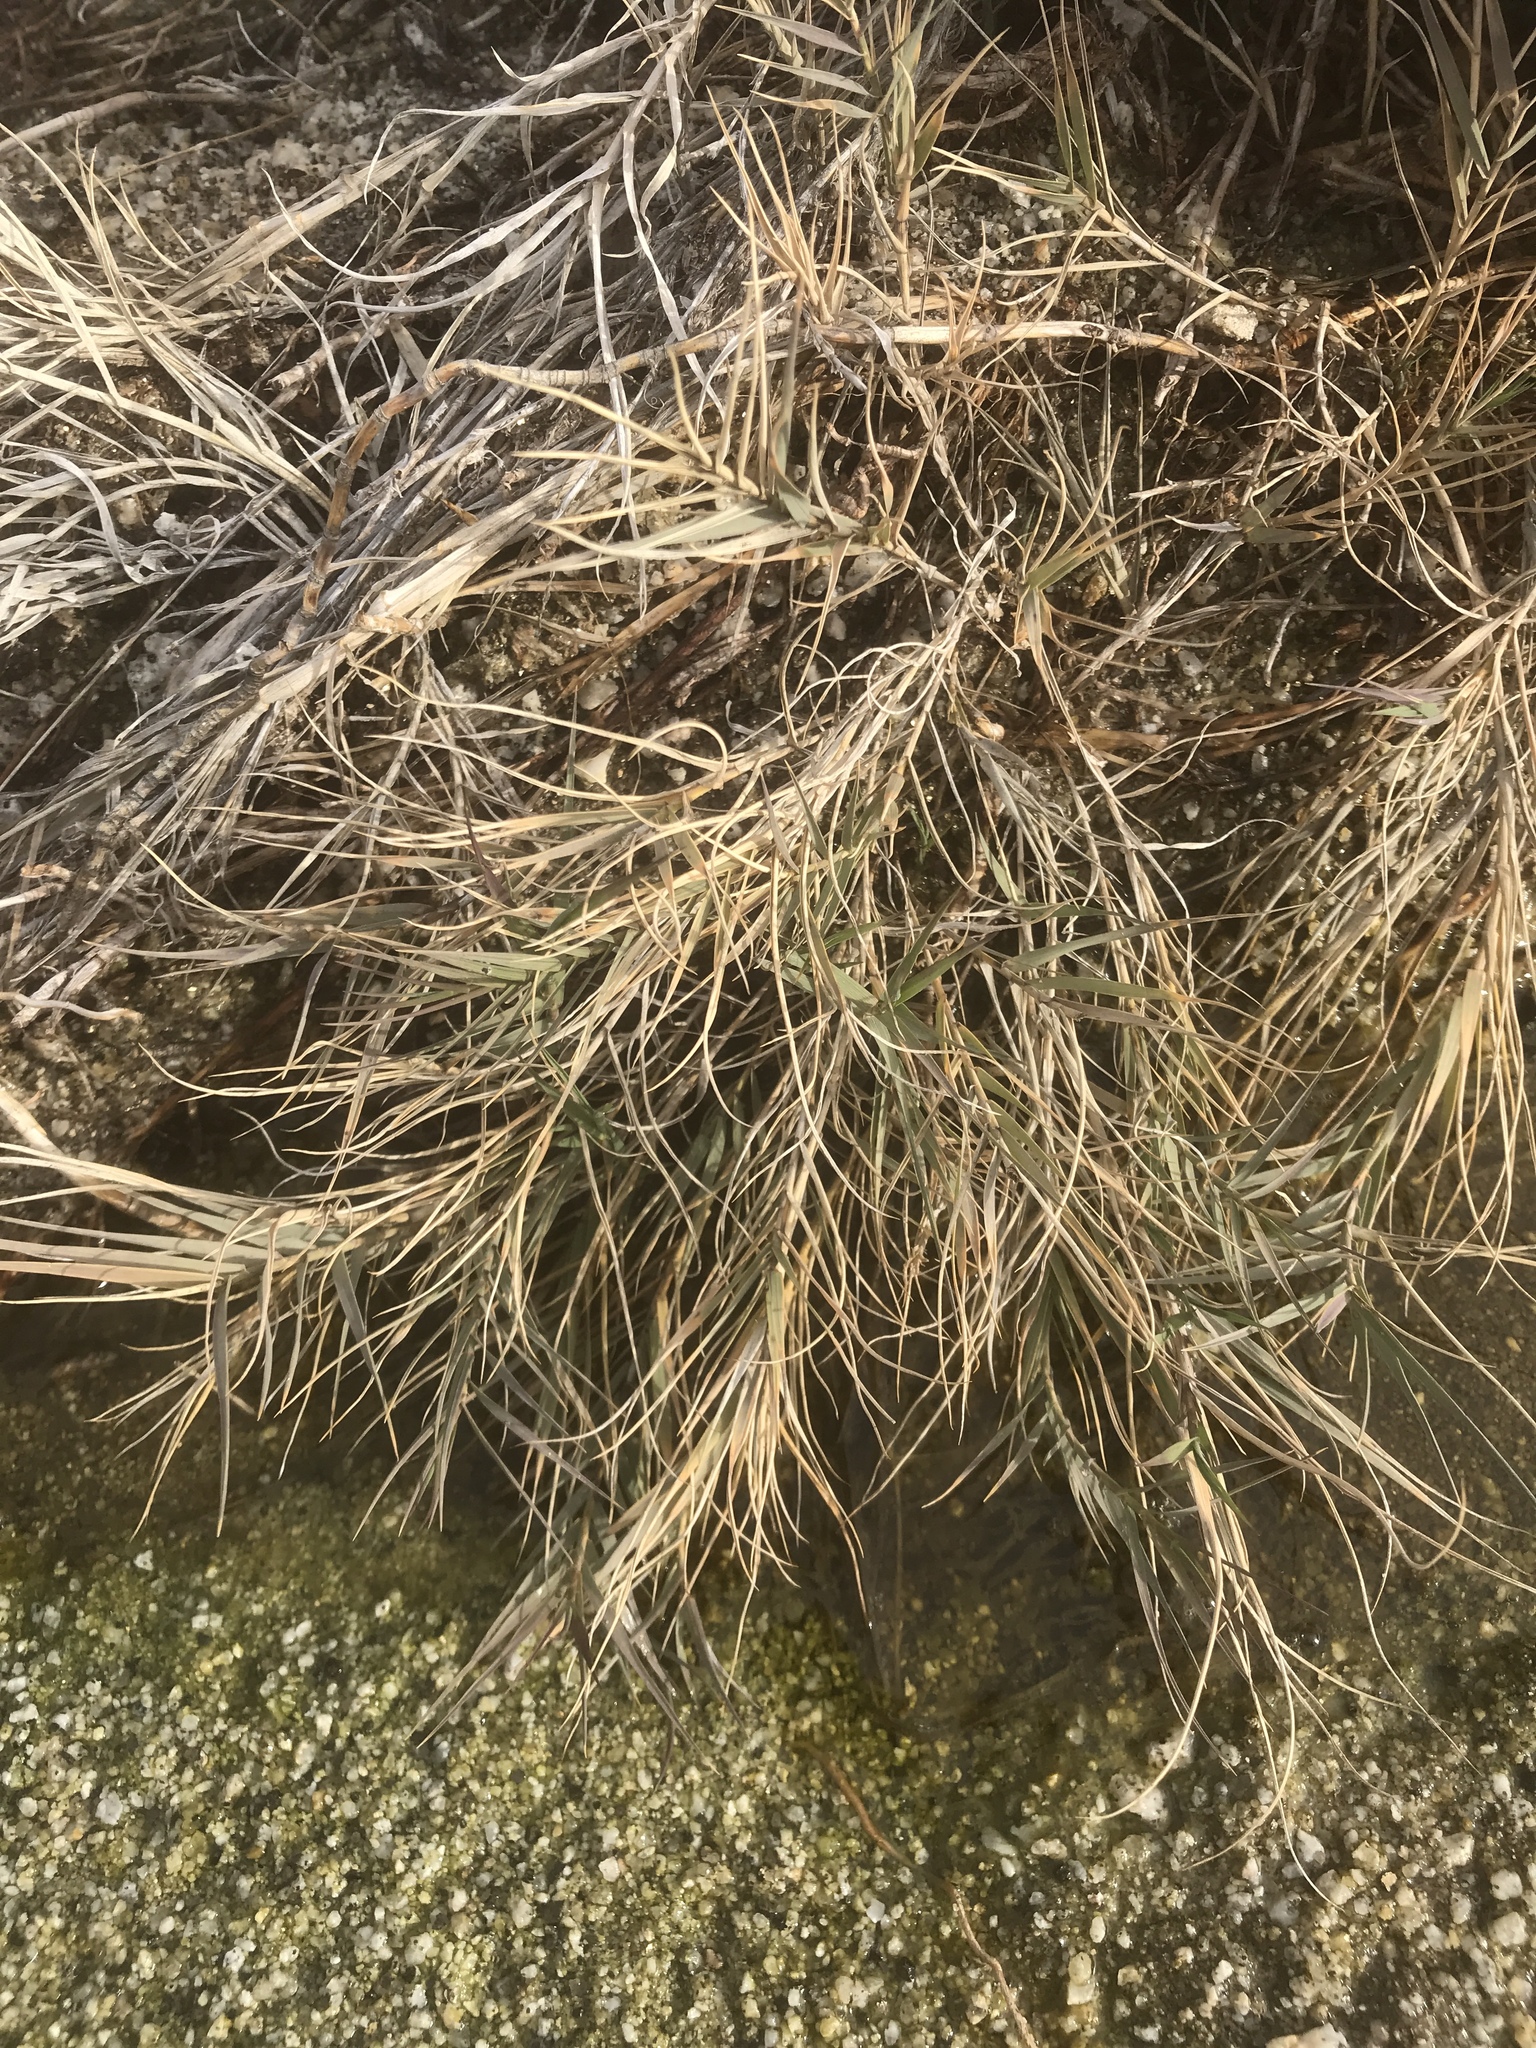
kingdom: Plantae
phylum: Tracheophyta
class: Liliopsida
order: Poales
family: Poaceae
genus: Distichlis
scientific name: Distichlis spicata
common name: Saltgrass
